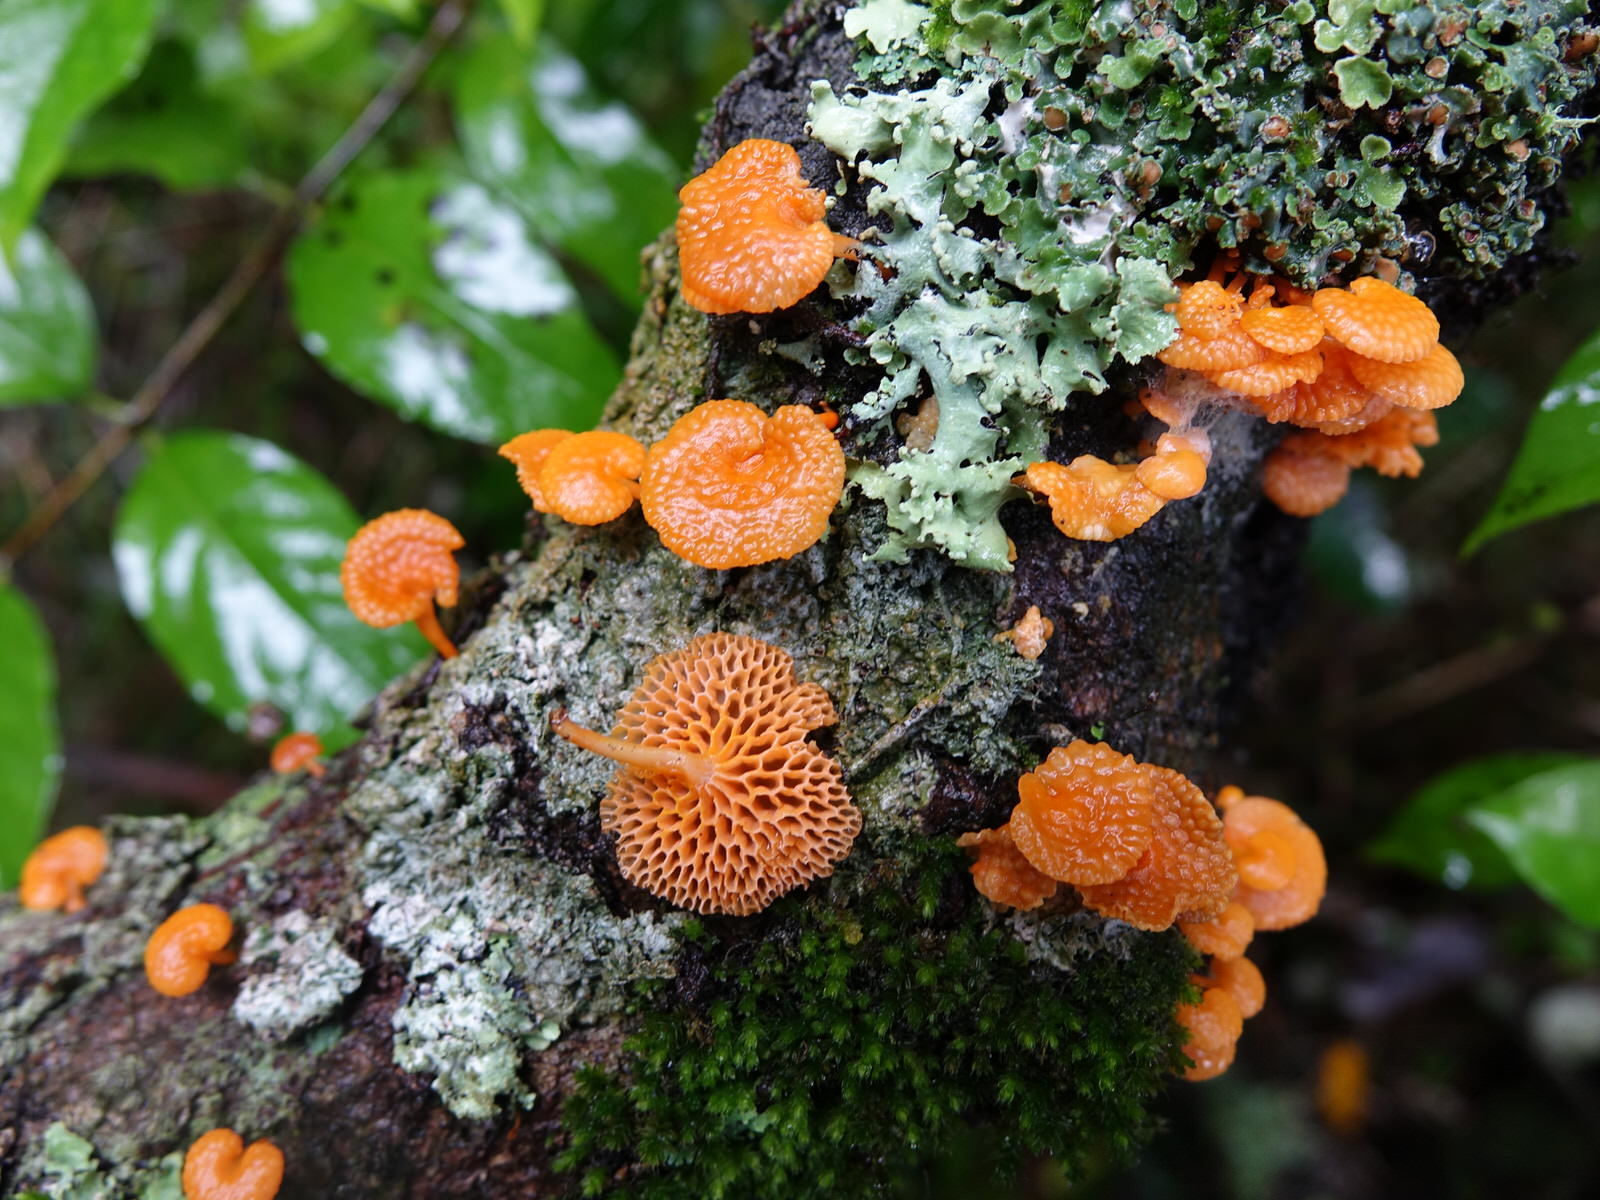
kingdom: Fungi
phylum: Basidiomycota
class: Agaricomycetes
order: Agaricales
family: Mycenaceae
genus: Favolaschia
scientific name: Favolaschia claudopus
